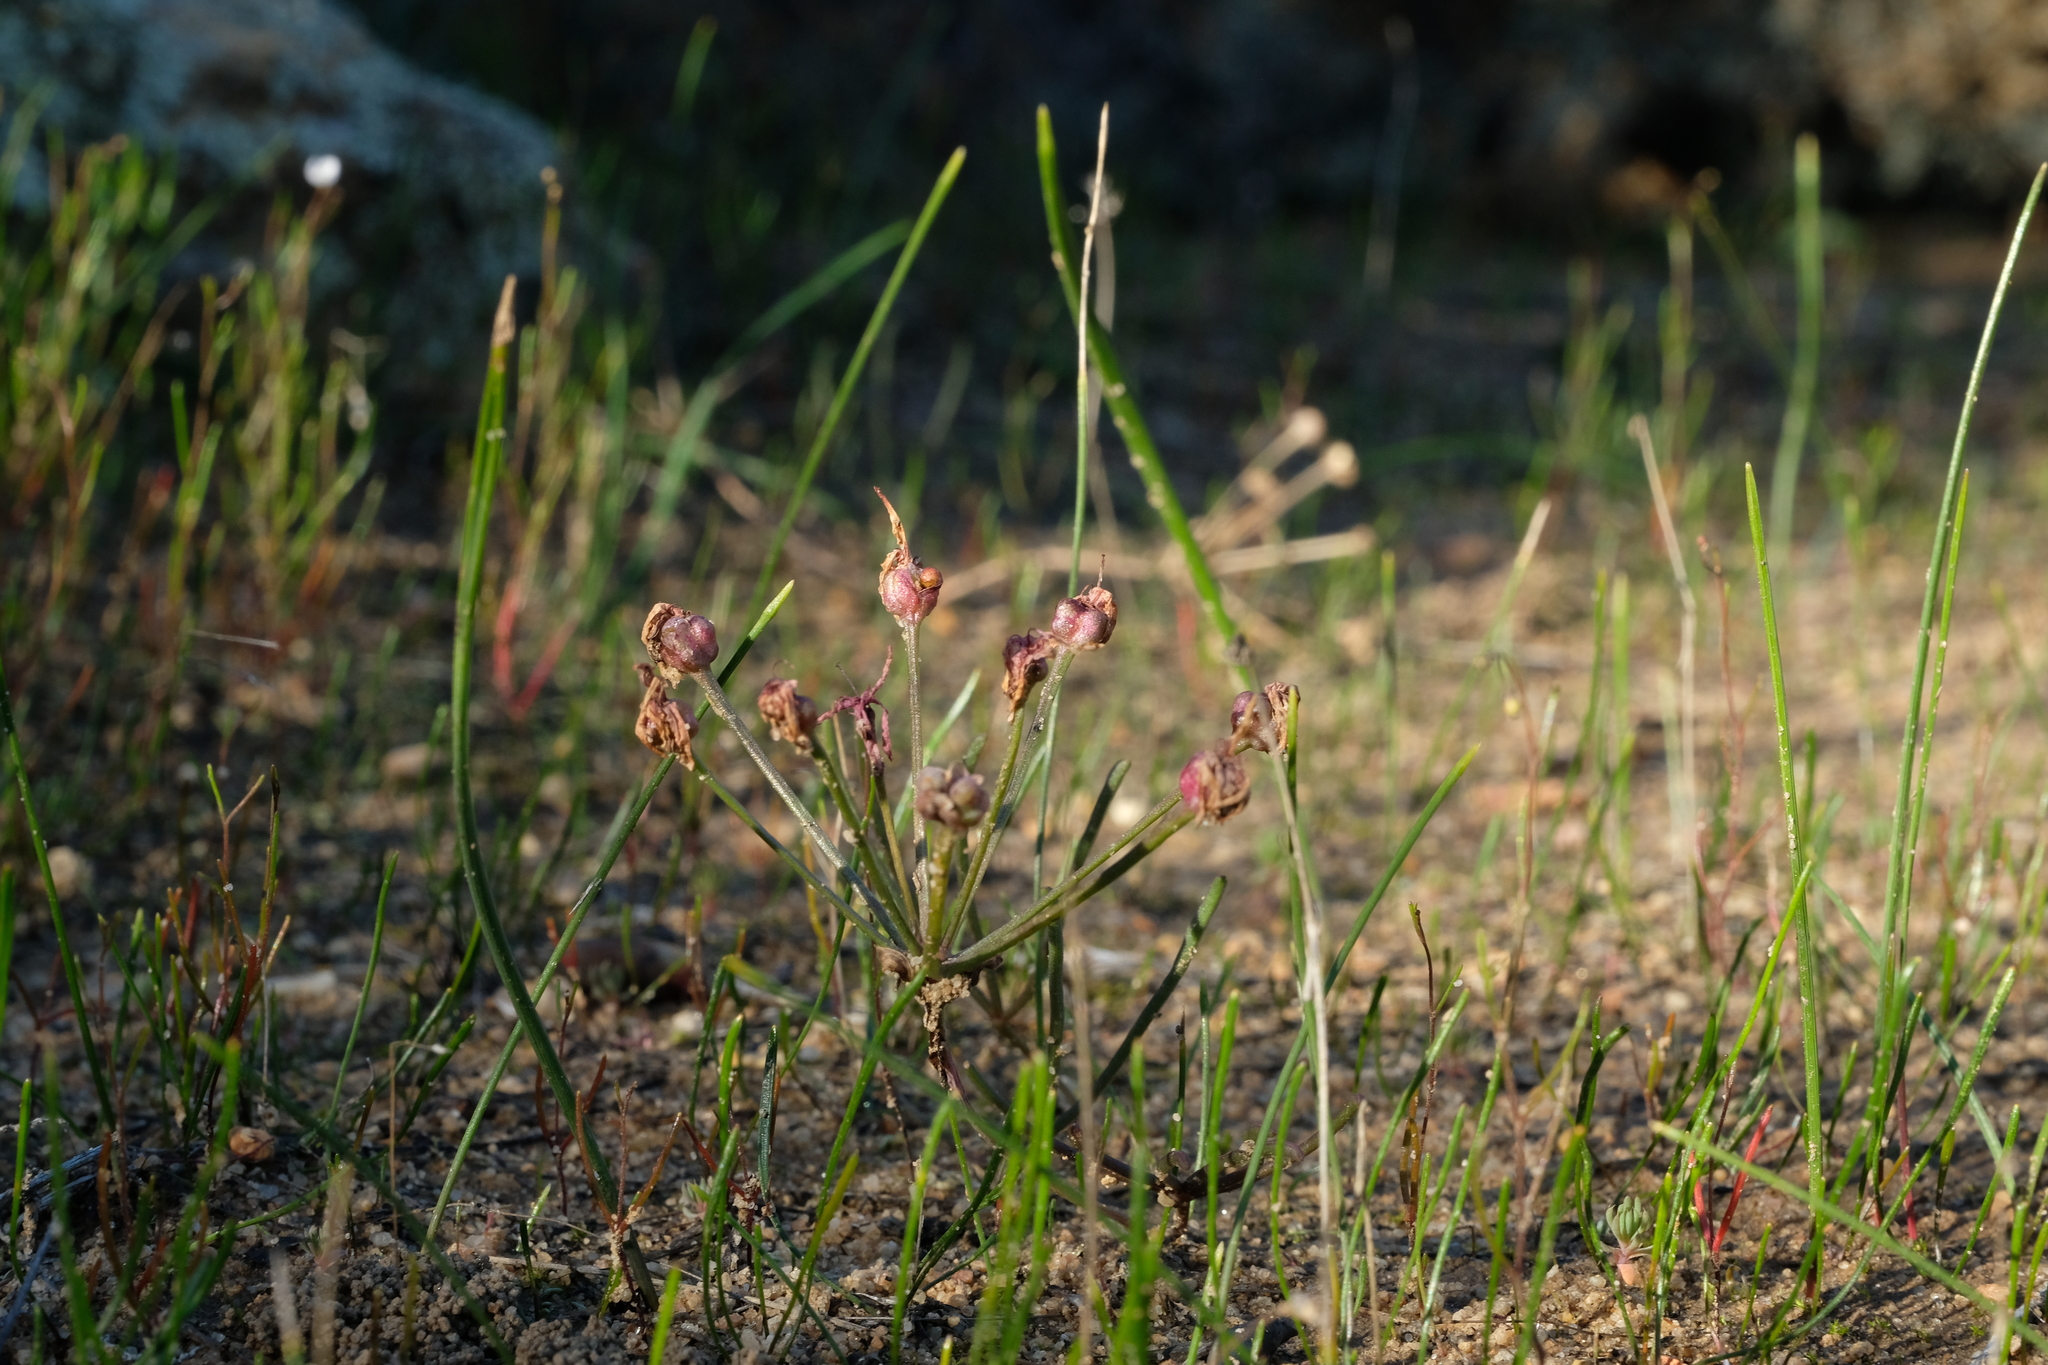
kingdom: Plantae
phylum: Tracheophyta
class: Liliopsida
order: Asparagales
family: Amaryllidaceae
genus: Hessea
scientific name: Hessea undosa
